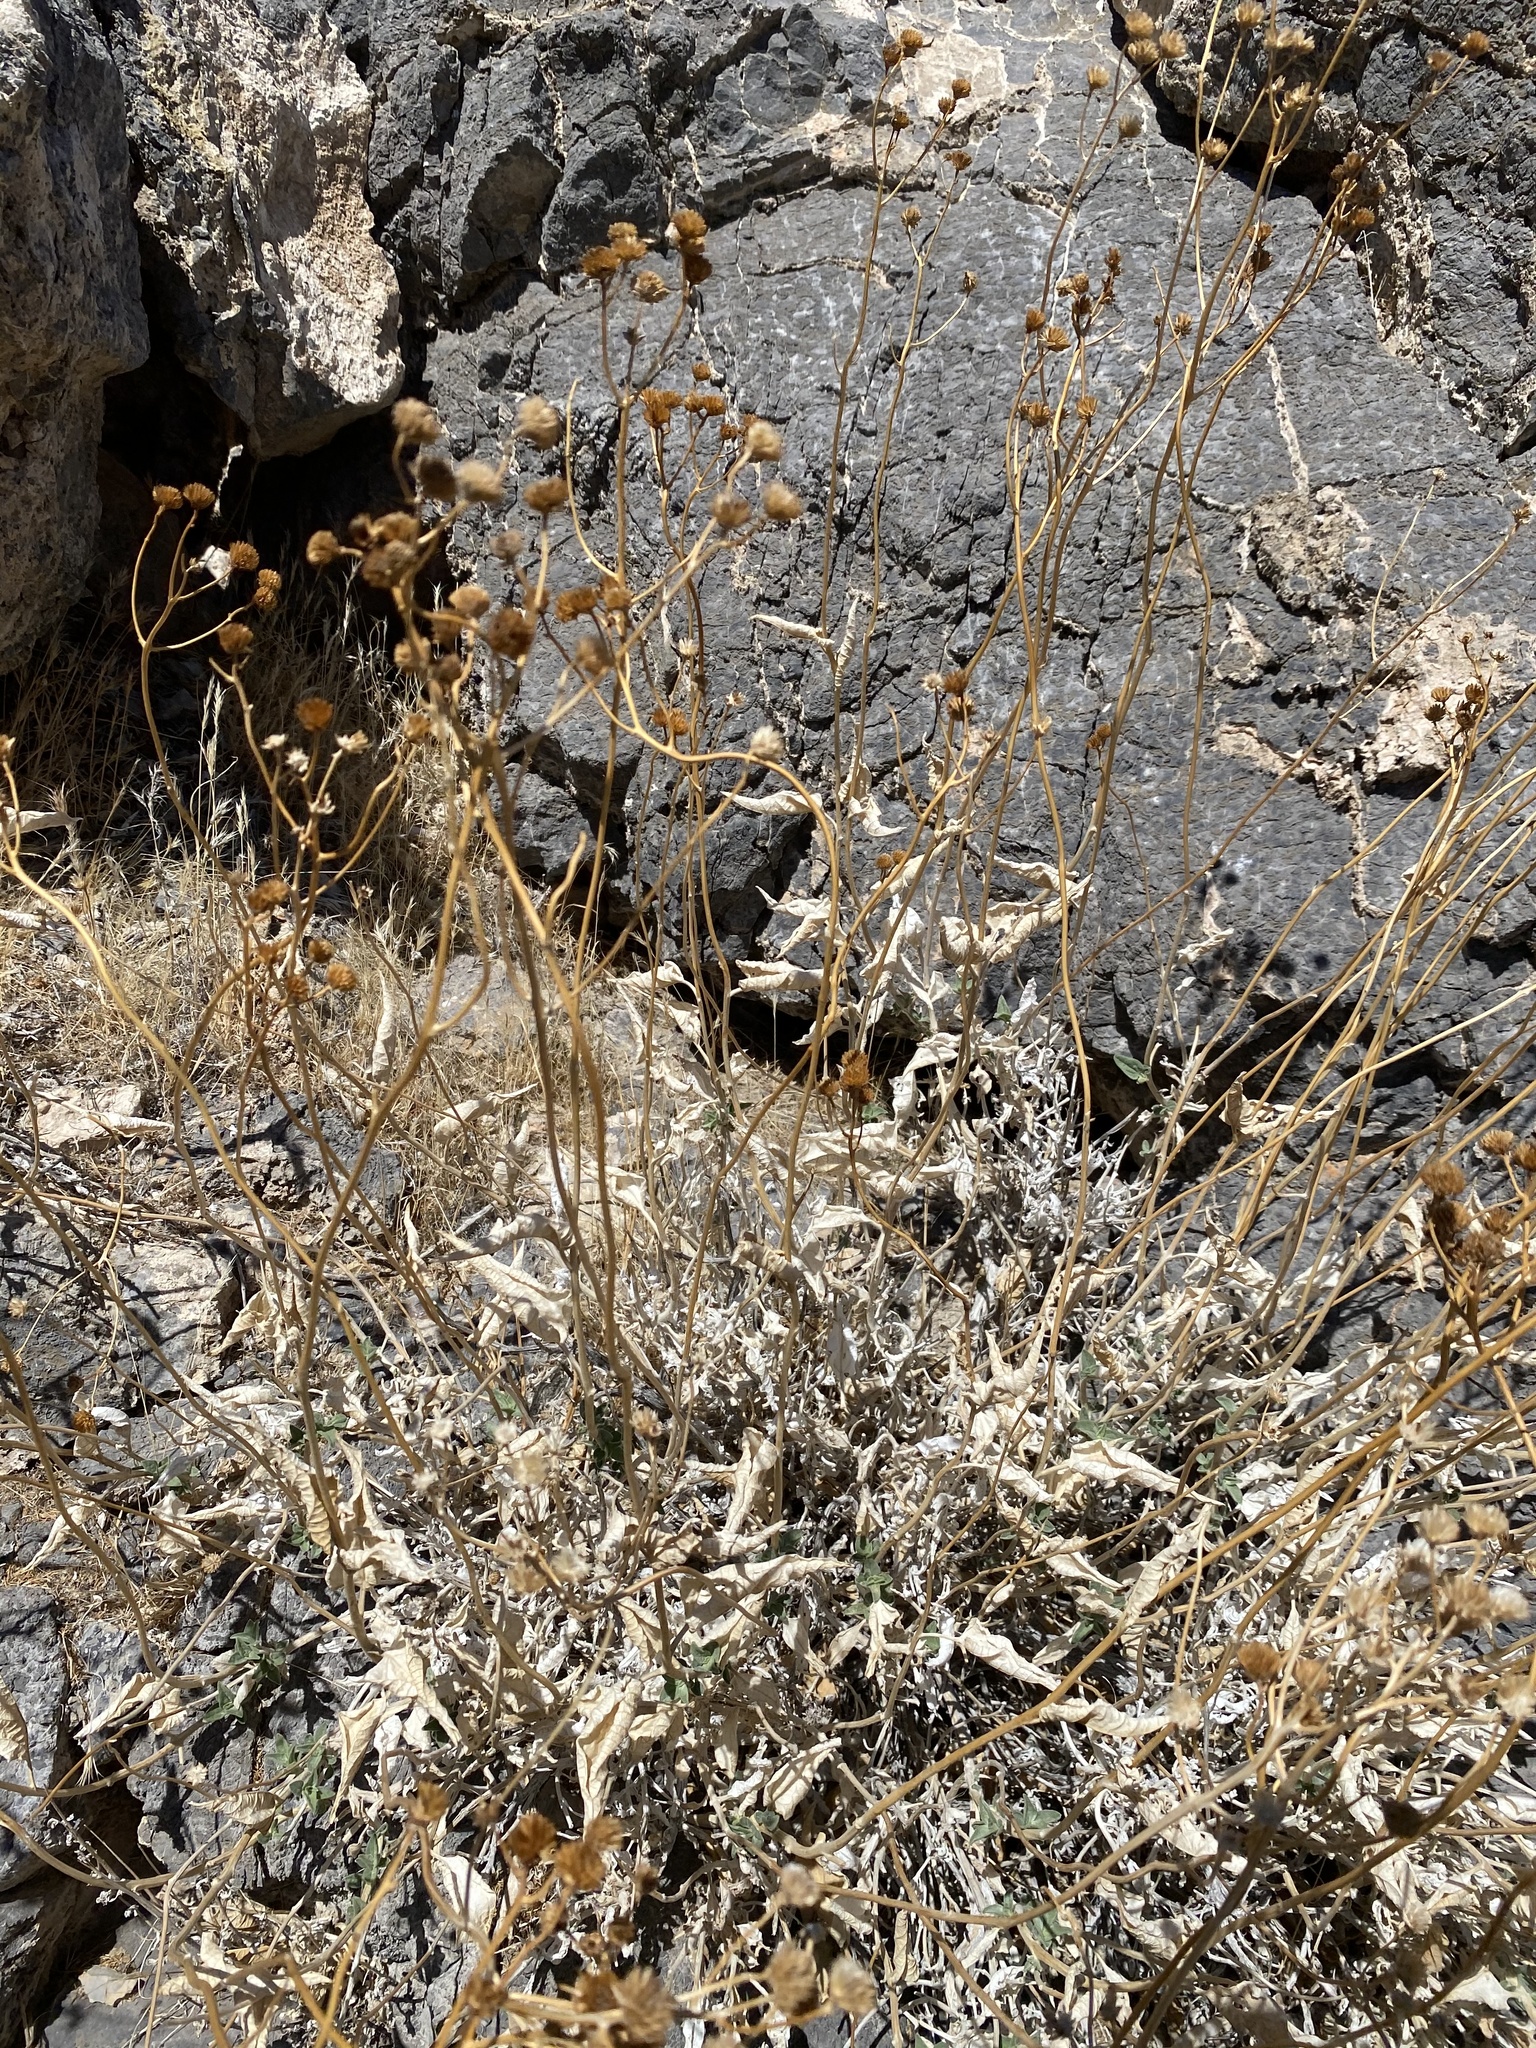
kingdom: Plantae
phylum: Tracheophyta
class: Magnoliopsida
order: Asterales
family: Asteraceae
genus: Bahiopsis
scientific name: Bahiopsis reticulata
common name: Death valley goldeneye
